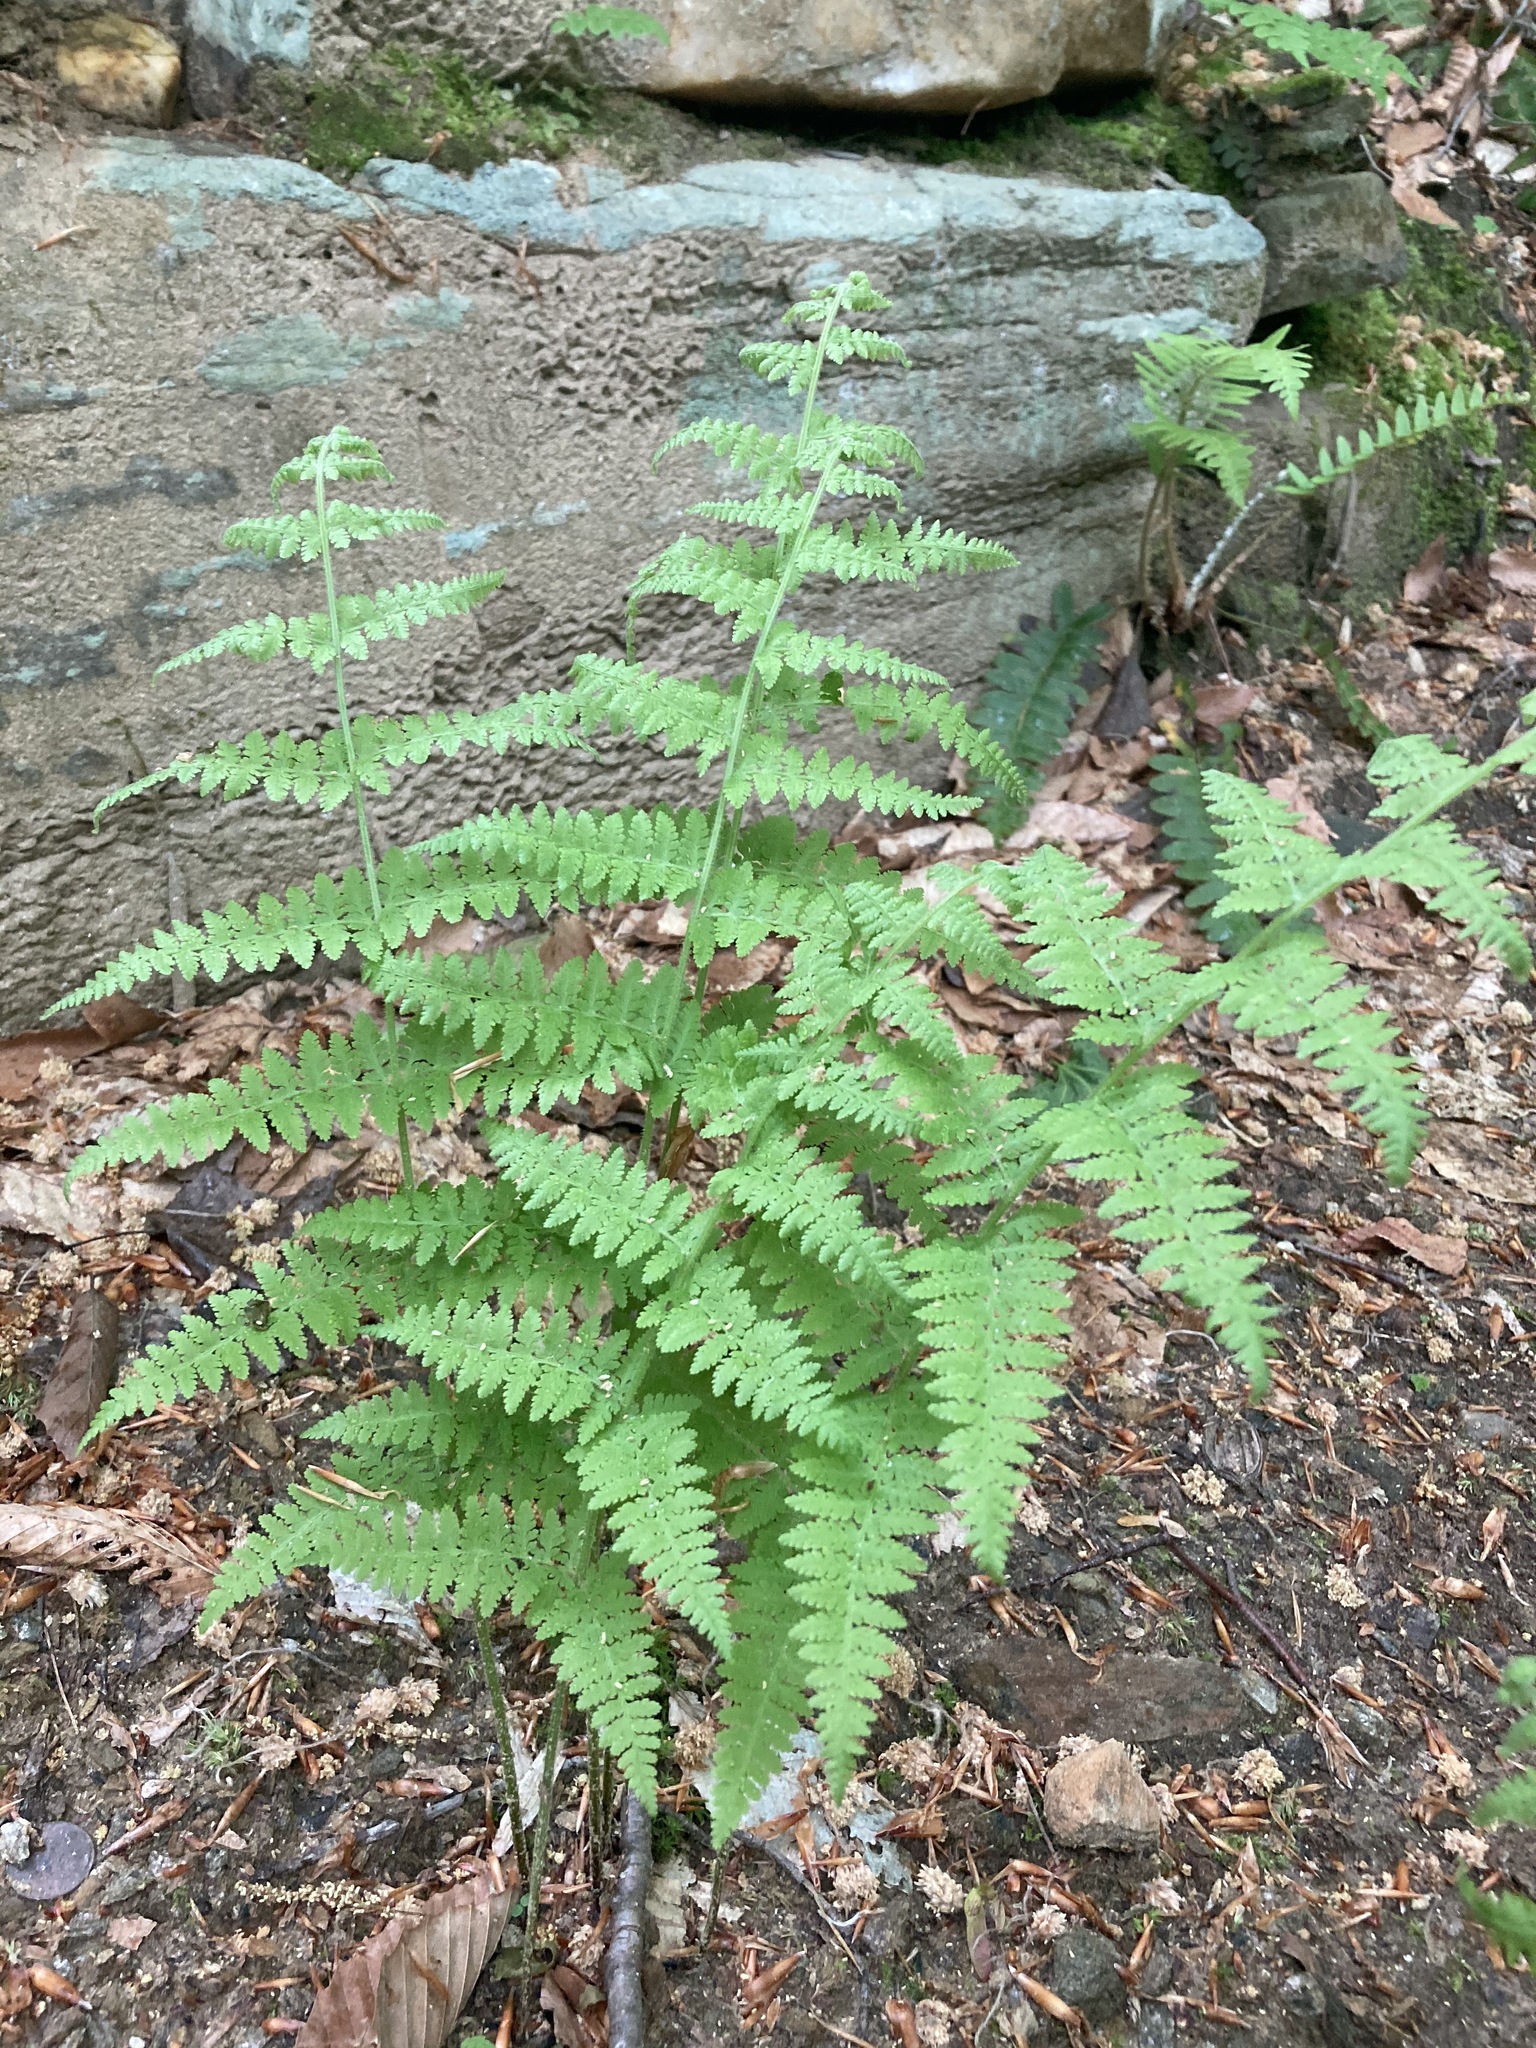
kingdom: Plantae
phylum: Tracheophyta
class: Polypodiopsida
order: Polypodiales
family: Dennstaedtiaceae
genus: Sitobolium
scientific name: Sitobolium punctilobum
